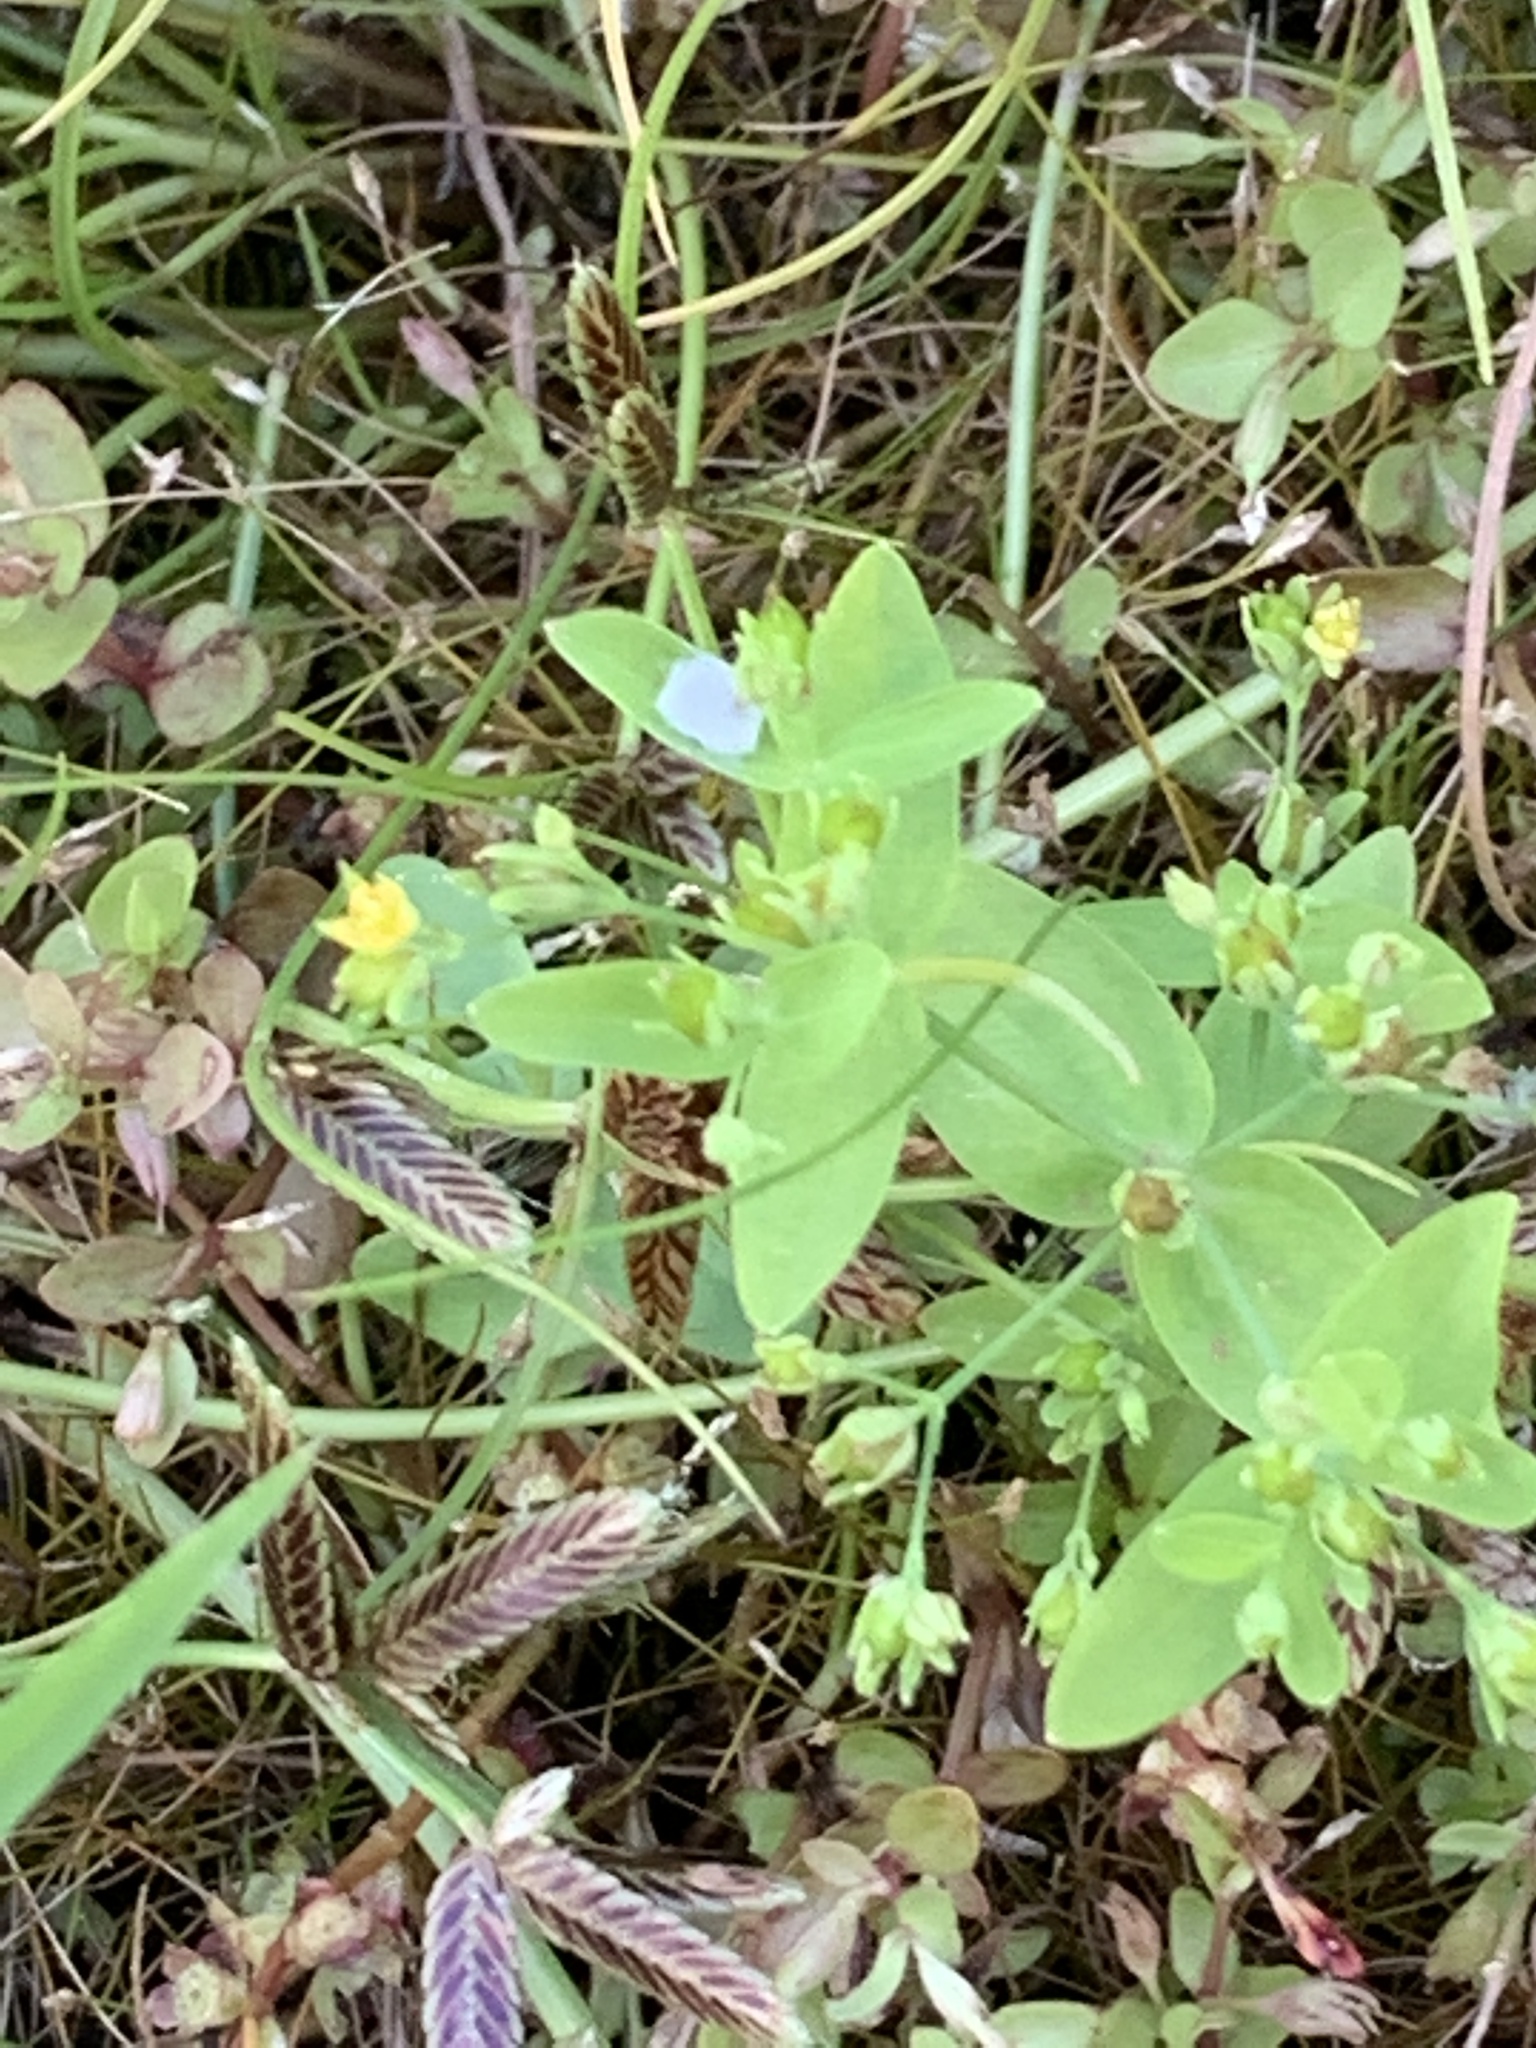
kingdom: Plantae
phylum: Tracheophyta
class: Magnoliopsida
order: Malpighiales
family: Hypericaceae
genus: Hypericum
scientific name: Hypericum mutilum
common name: Dwarf st. john's-wort
